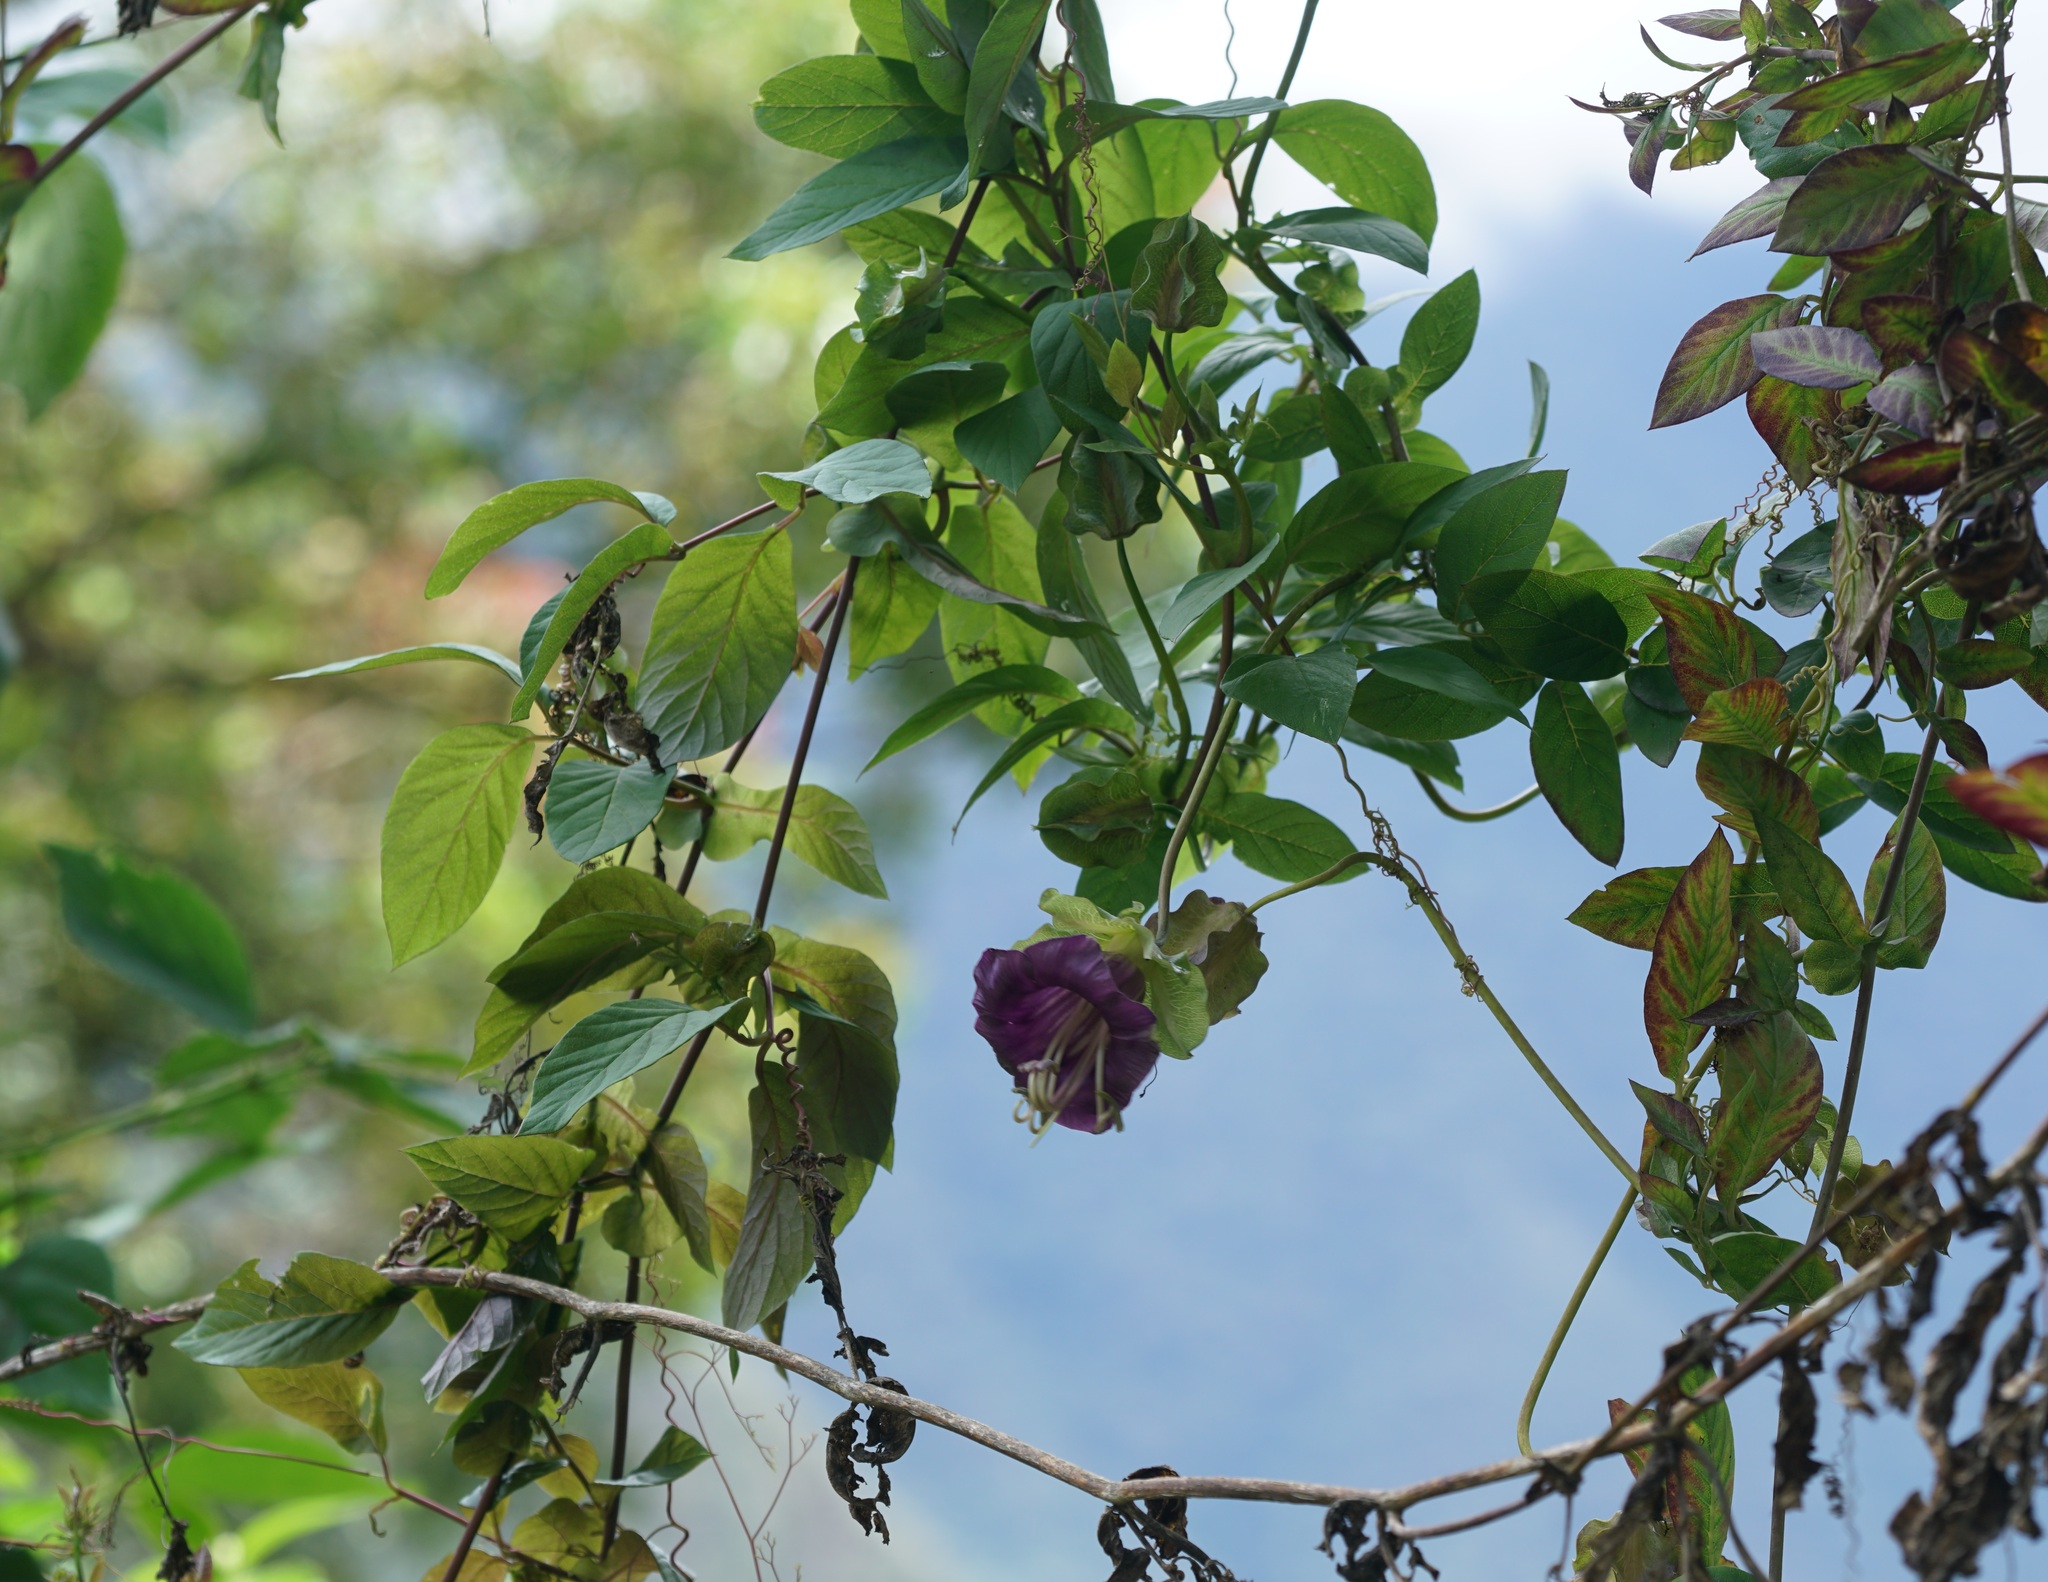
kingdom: Plantae
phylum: Tracheophyta
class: Magnoliopsida
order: Ericales
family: Polemoniaceae
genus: Cobaea
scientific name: Cobaea scandens
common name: Cup-and-saucer-vine
